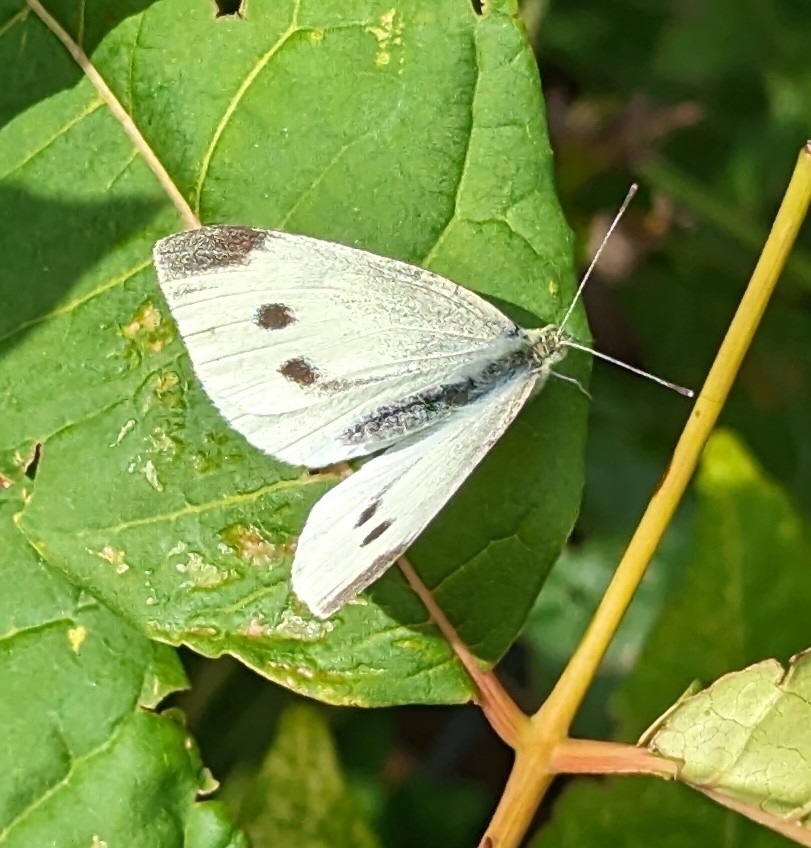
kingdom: Animalia
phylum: Arthropoda
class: Insecta
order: Lepidoptera
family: Pieridae
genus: Pieris
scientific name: Pieris rapae
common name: Small white
